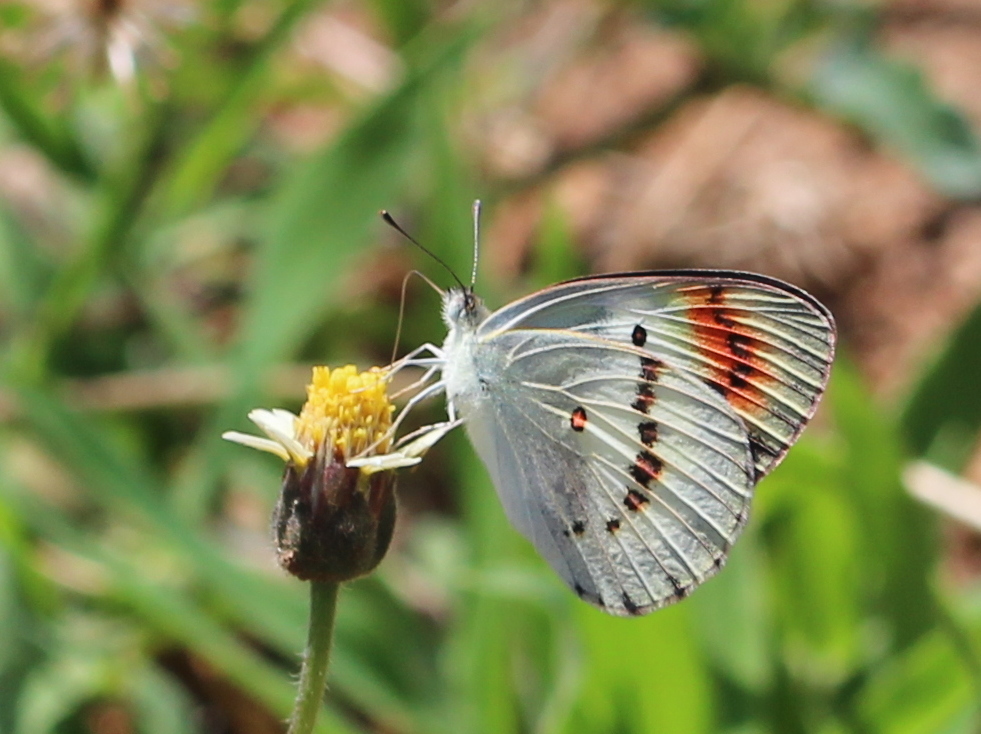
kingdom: Animalia
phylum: Arthropoda
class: Insecta
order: Lepidoptera
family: Pieridae
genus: Colotis
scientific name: Colotis danae
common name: Crimson tip
